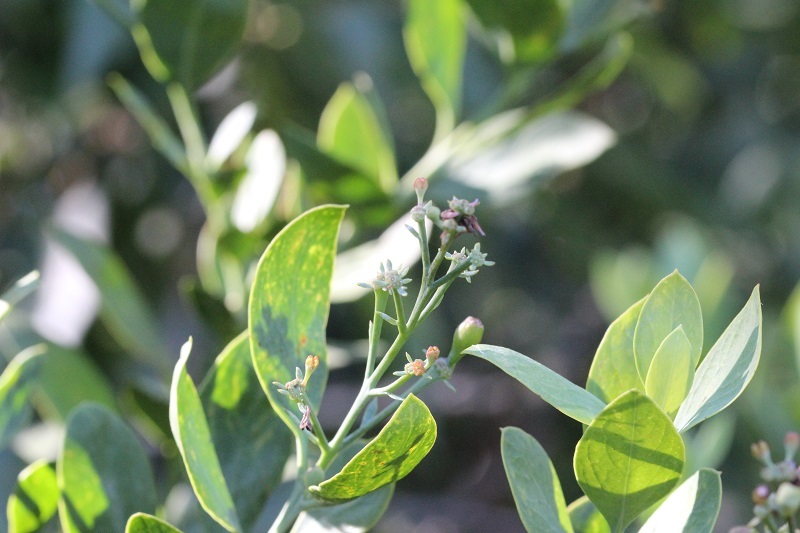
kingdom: Plantae
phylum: Tracheophyta
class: Magnoliopsida
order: Santalales
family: Santalaceae
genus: Osyris
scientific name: Osyris compressa
